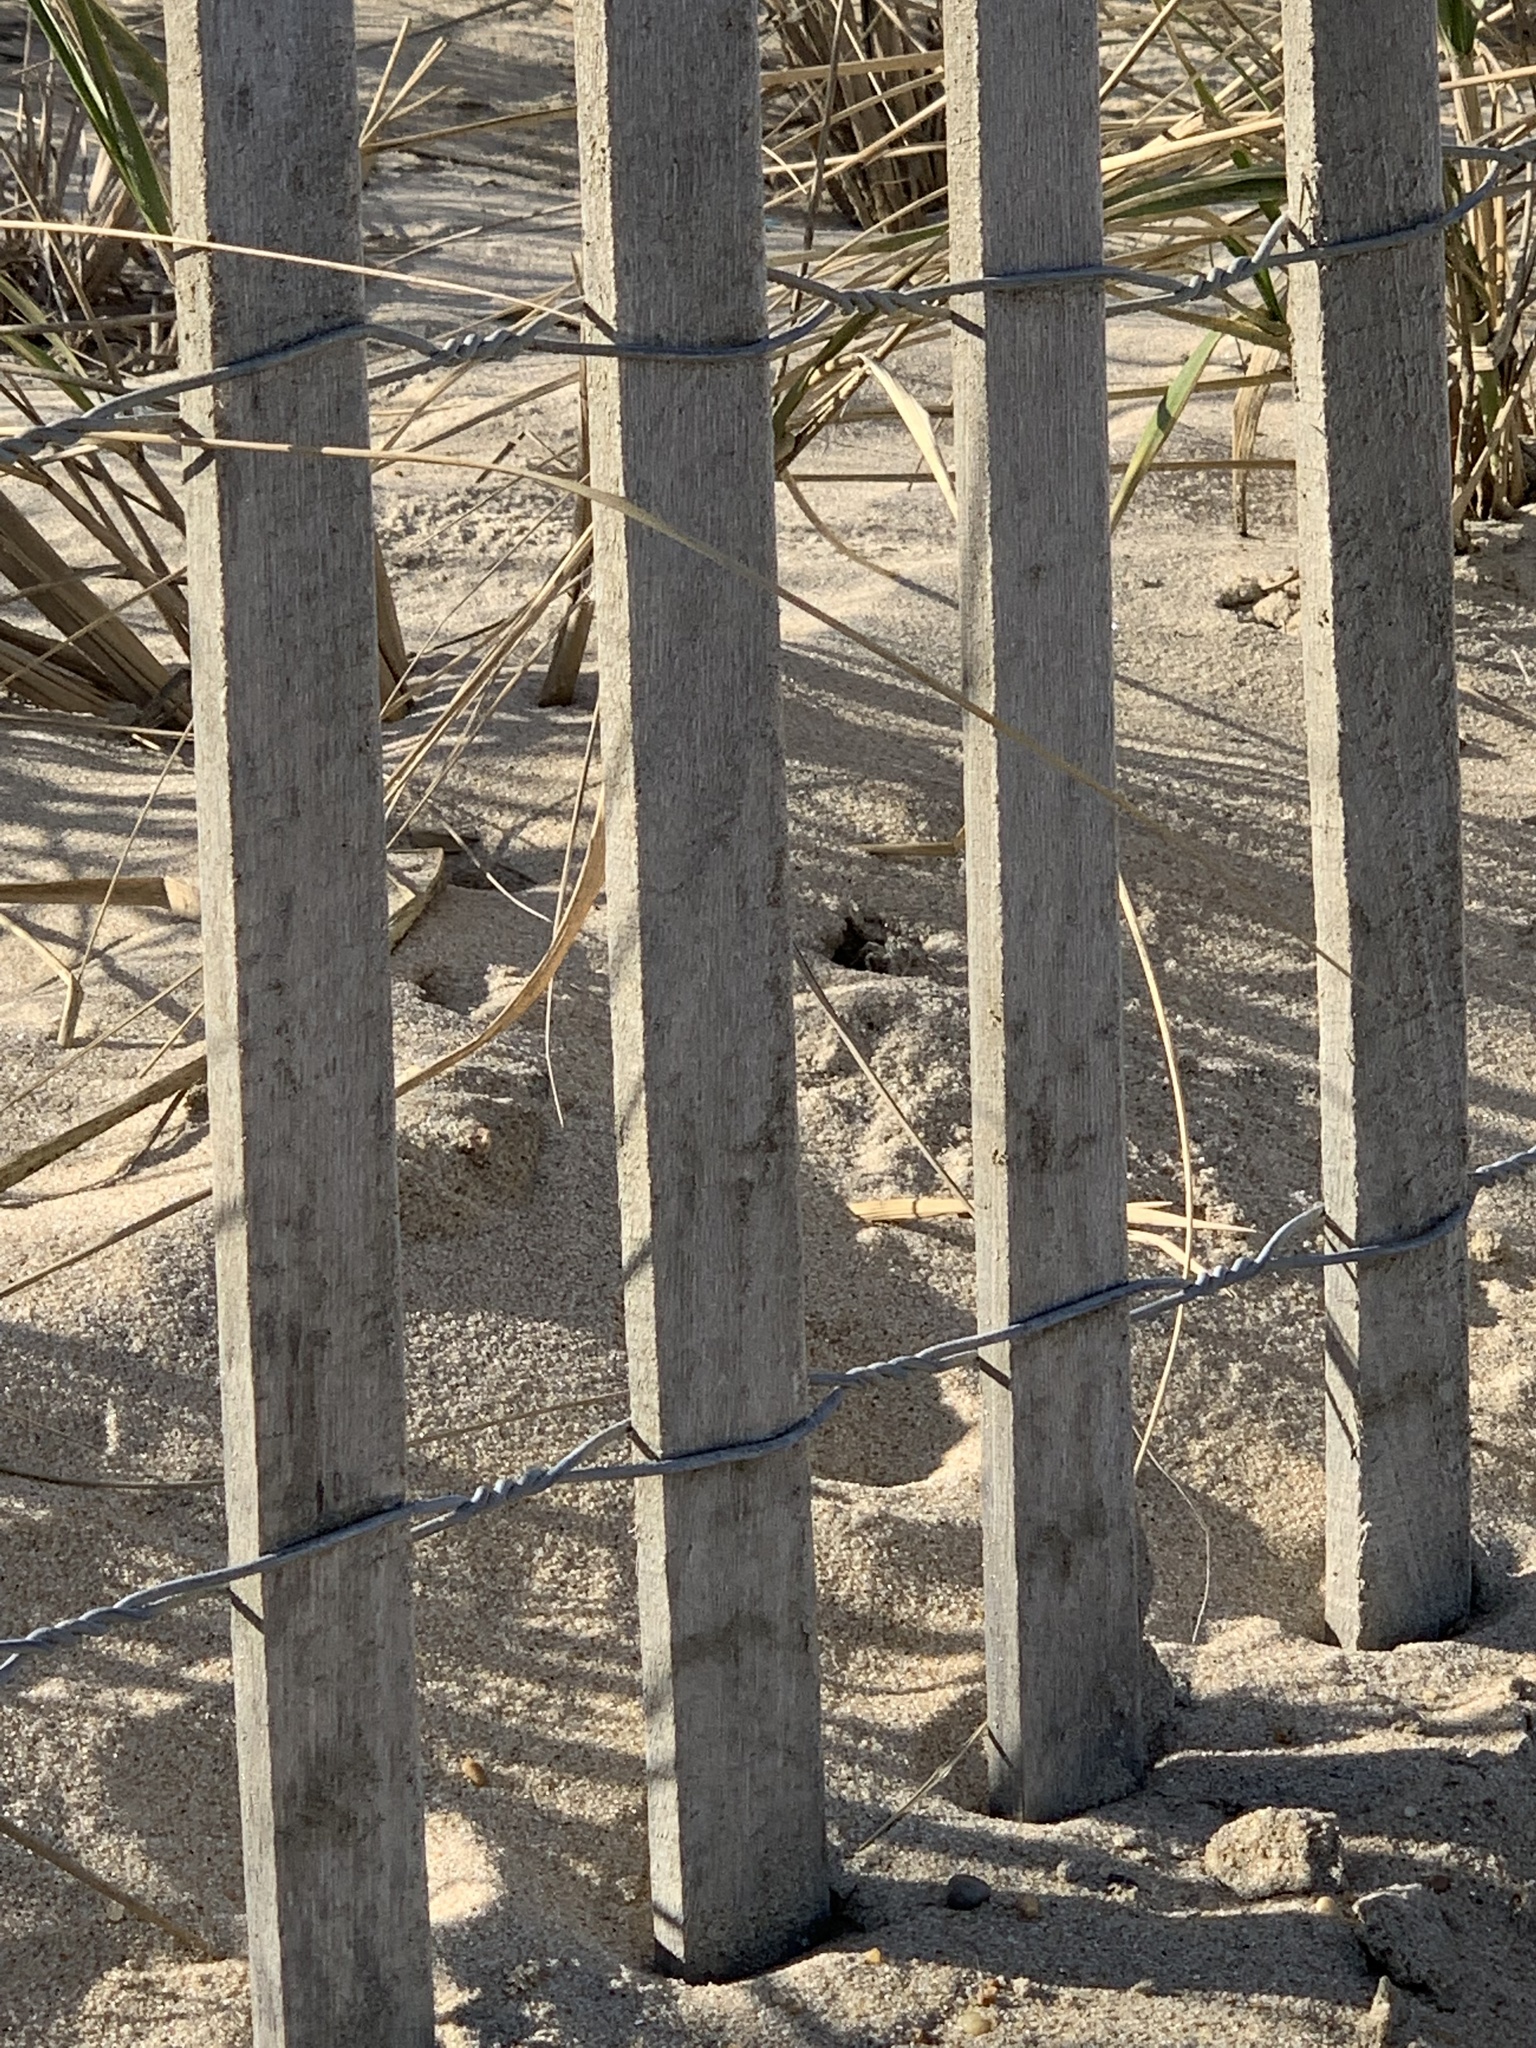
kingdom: Animalia
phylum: Arthropoda
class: Malacostraca
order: Decapoda
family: Ocypodidae
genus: Ocypode
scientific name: Ocypode quadrata
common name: Ghost crab
